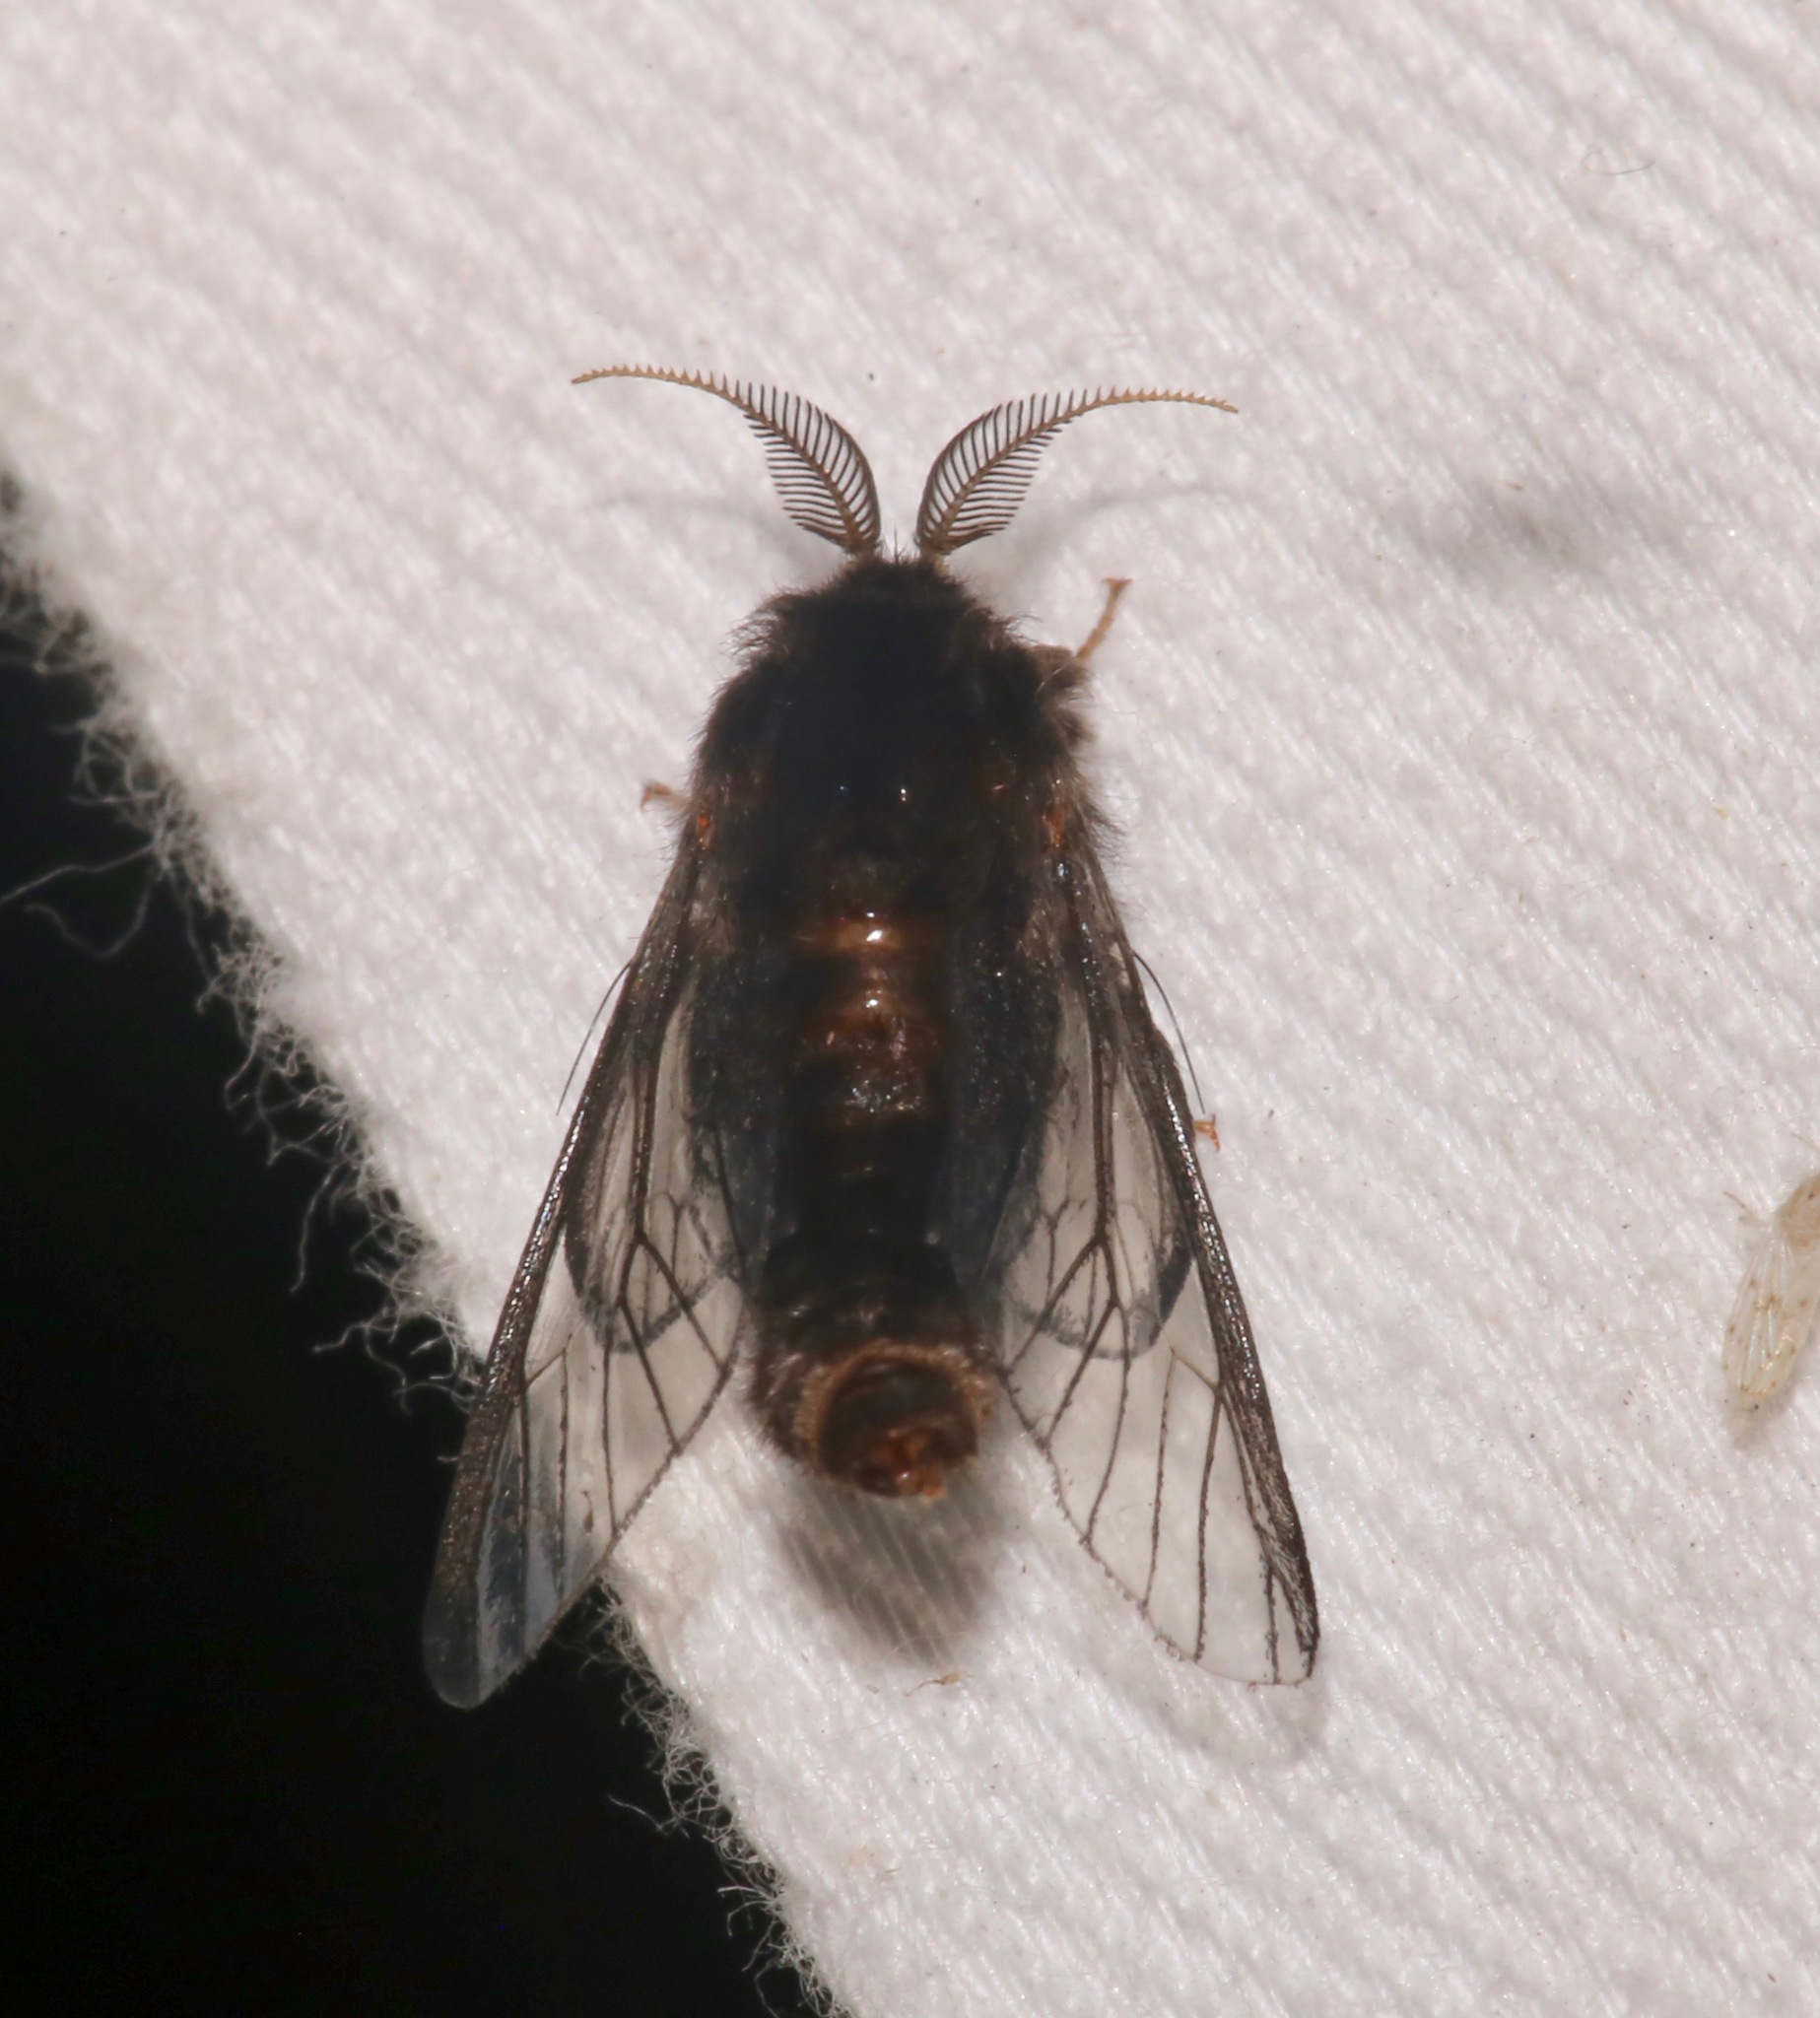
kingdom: Animalia
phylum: Arthropoda
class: Insecta
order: Lepidoptera
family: Psychidae
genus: Thyridopteryx
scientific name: Thyridopteryx ephemeraeformis
